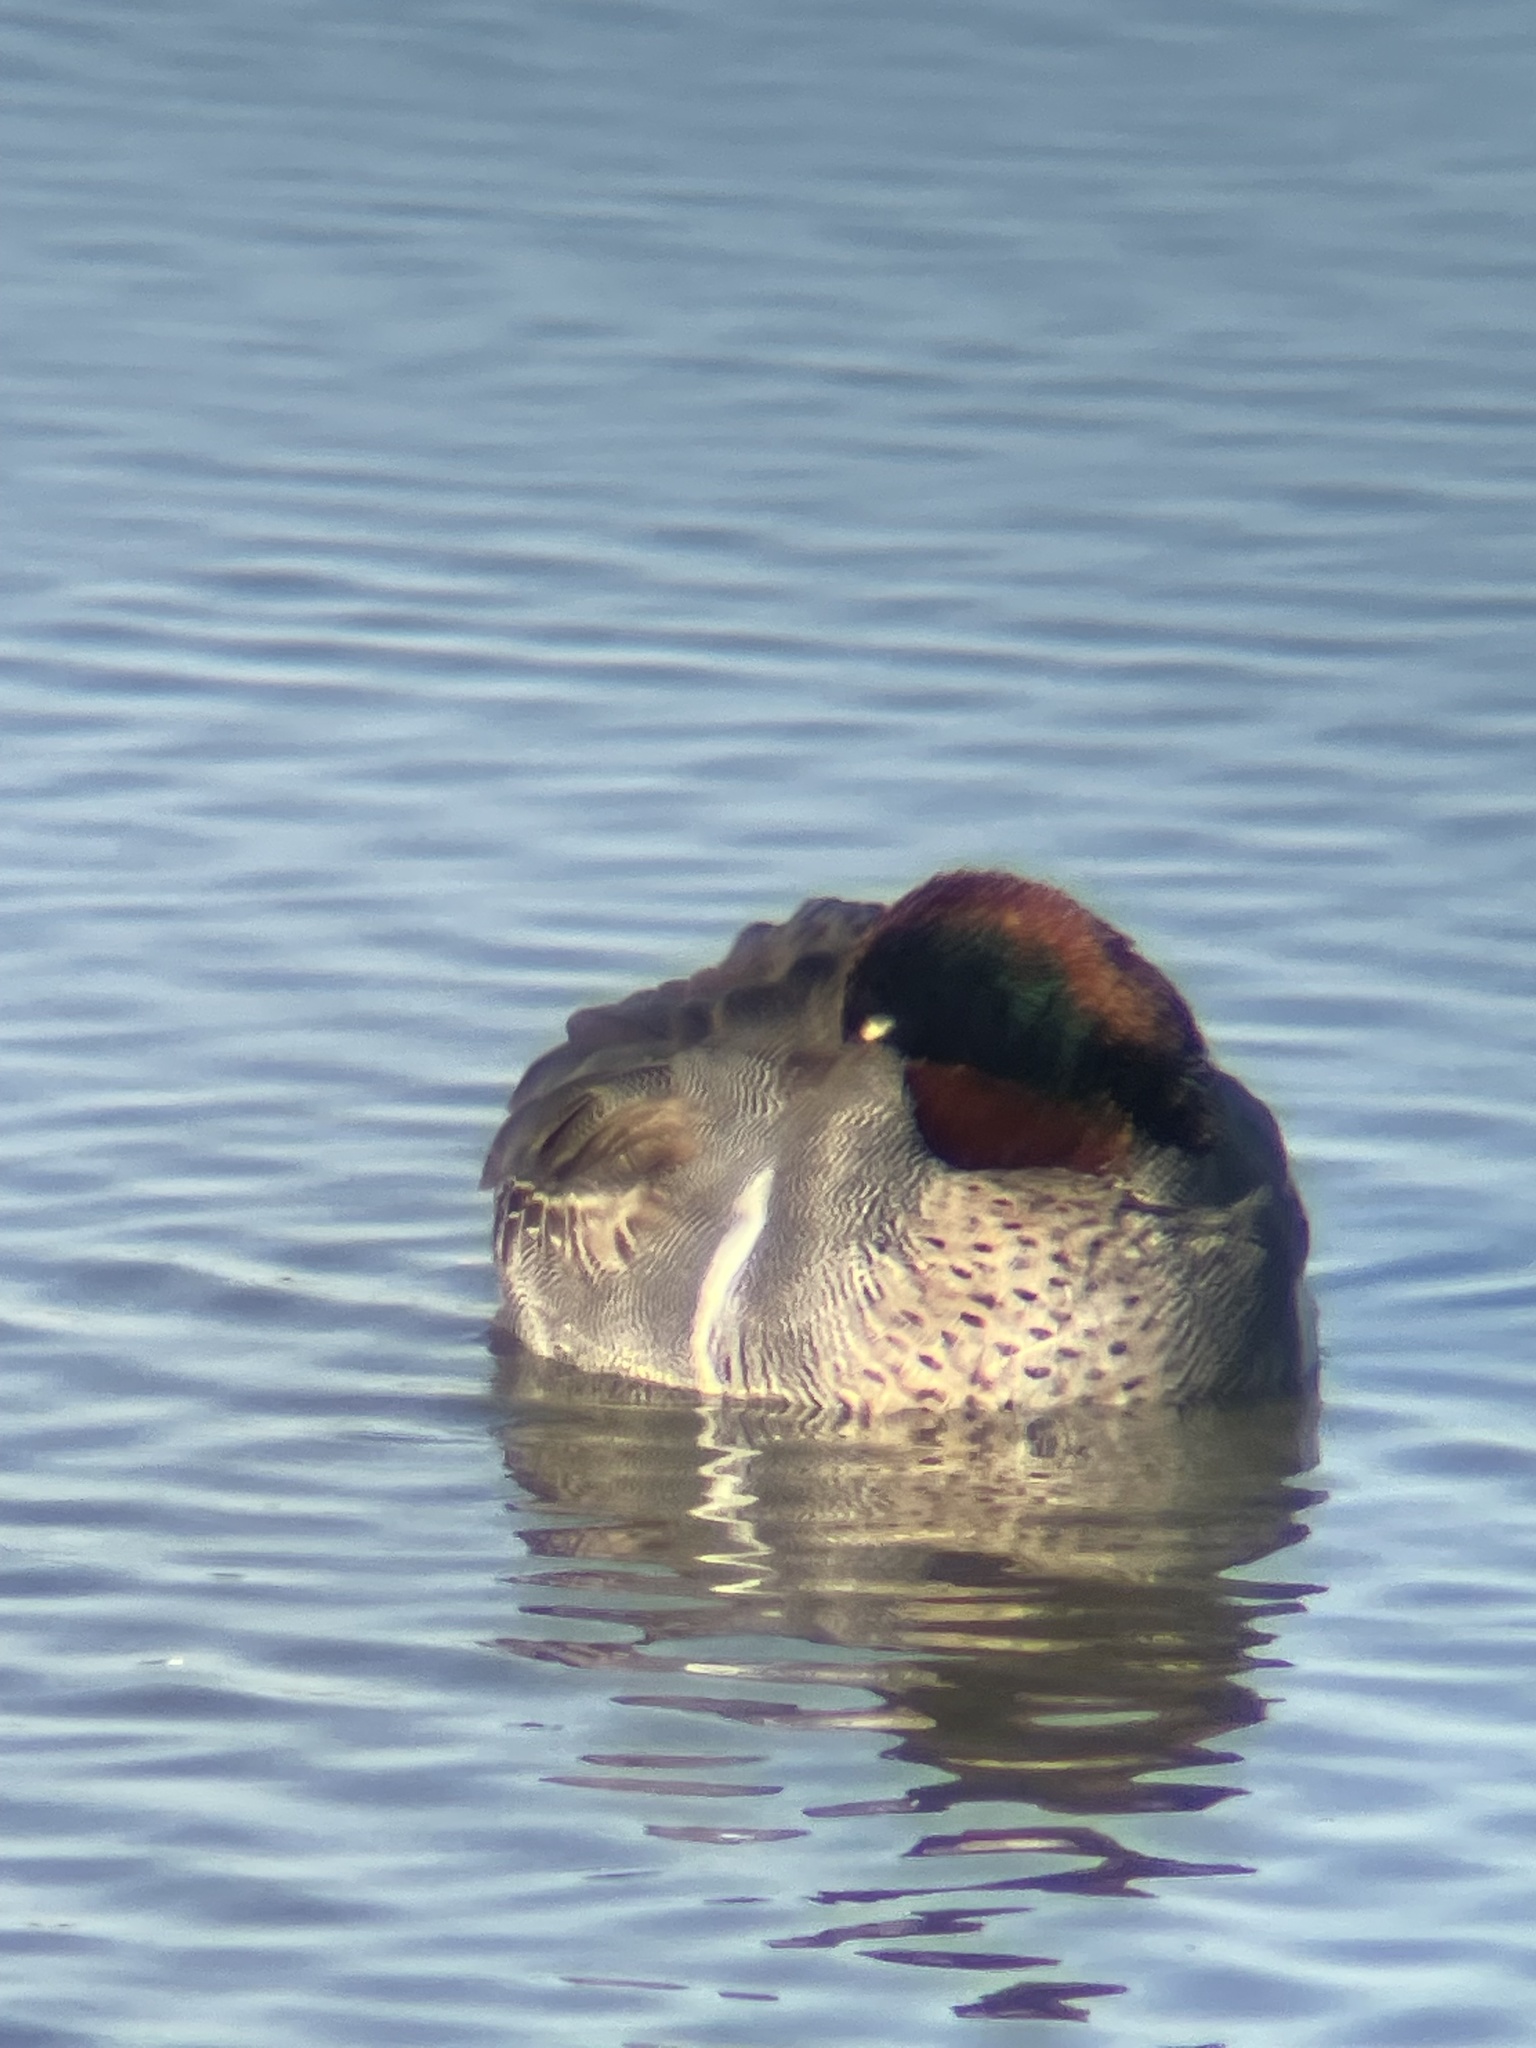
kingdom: Animalia
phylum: Chordata
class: Aves
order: Anseriformes
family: Anatidae
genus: Anas
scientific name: Anas crecca
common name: Eurasian teal
